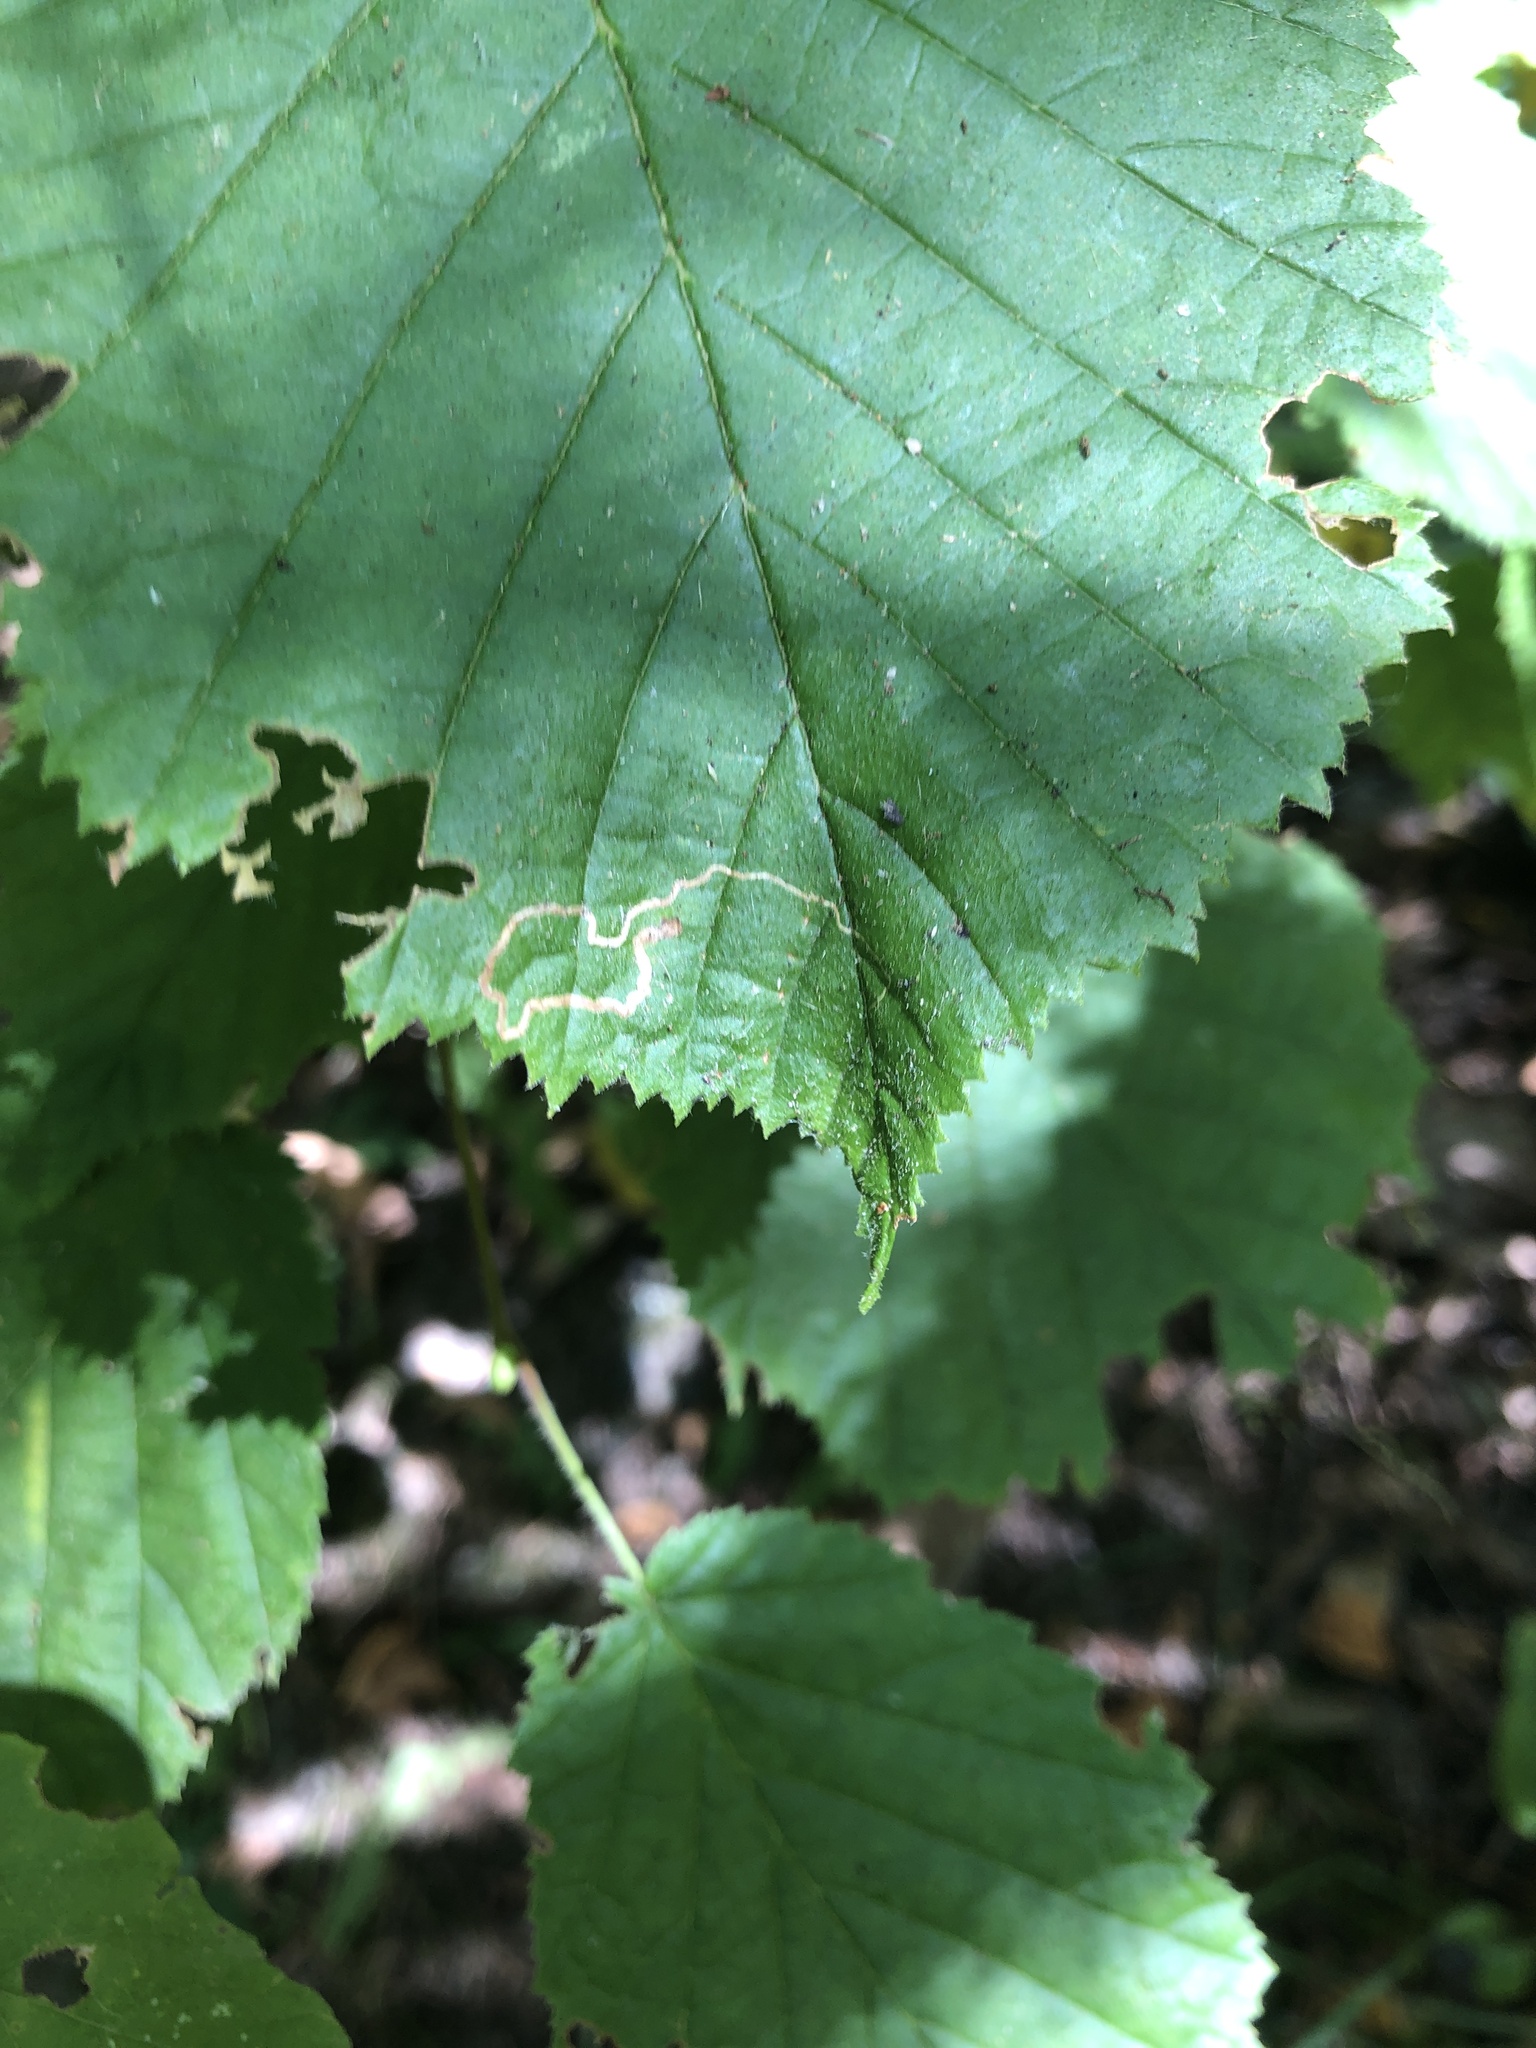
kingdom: Animalia
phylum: Arthropoda
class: Insecta
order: Lepidoptera
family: Nepticulidae
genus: Stigmella
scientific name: Stigmella microtheriella
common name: Nut-tree pigmy
